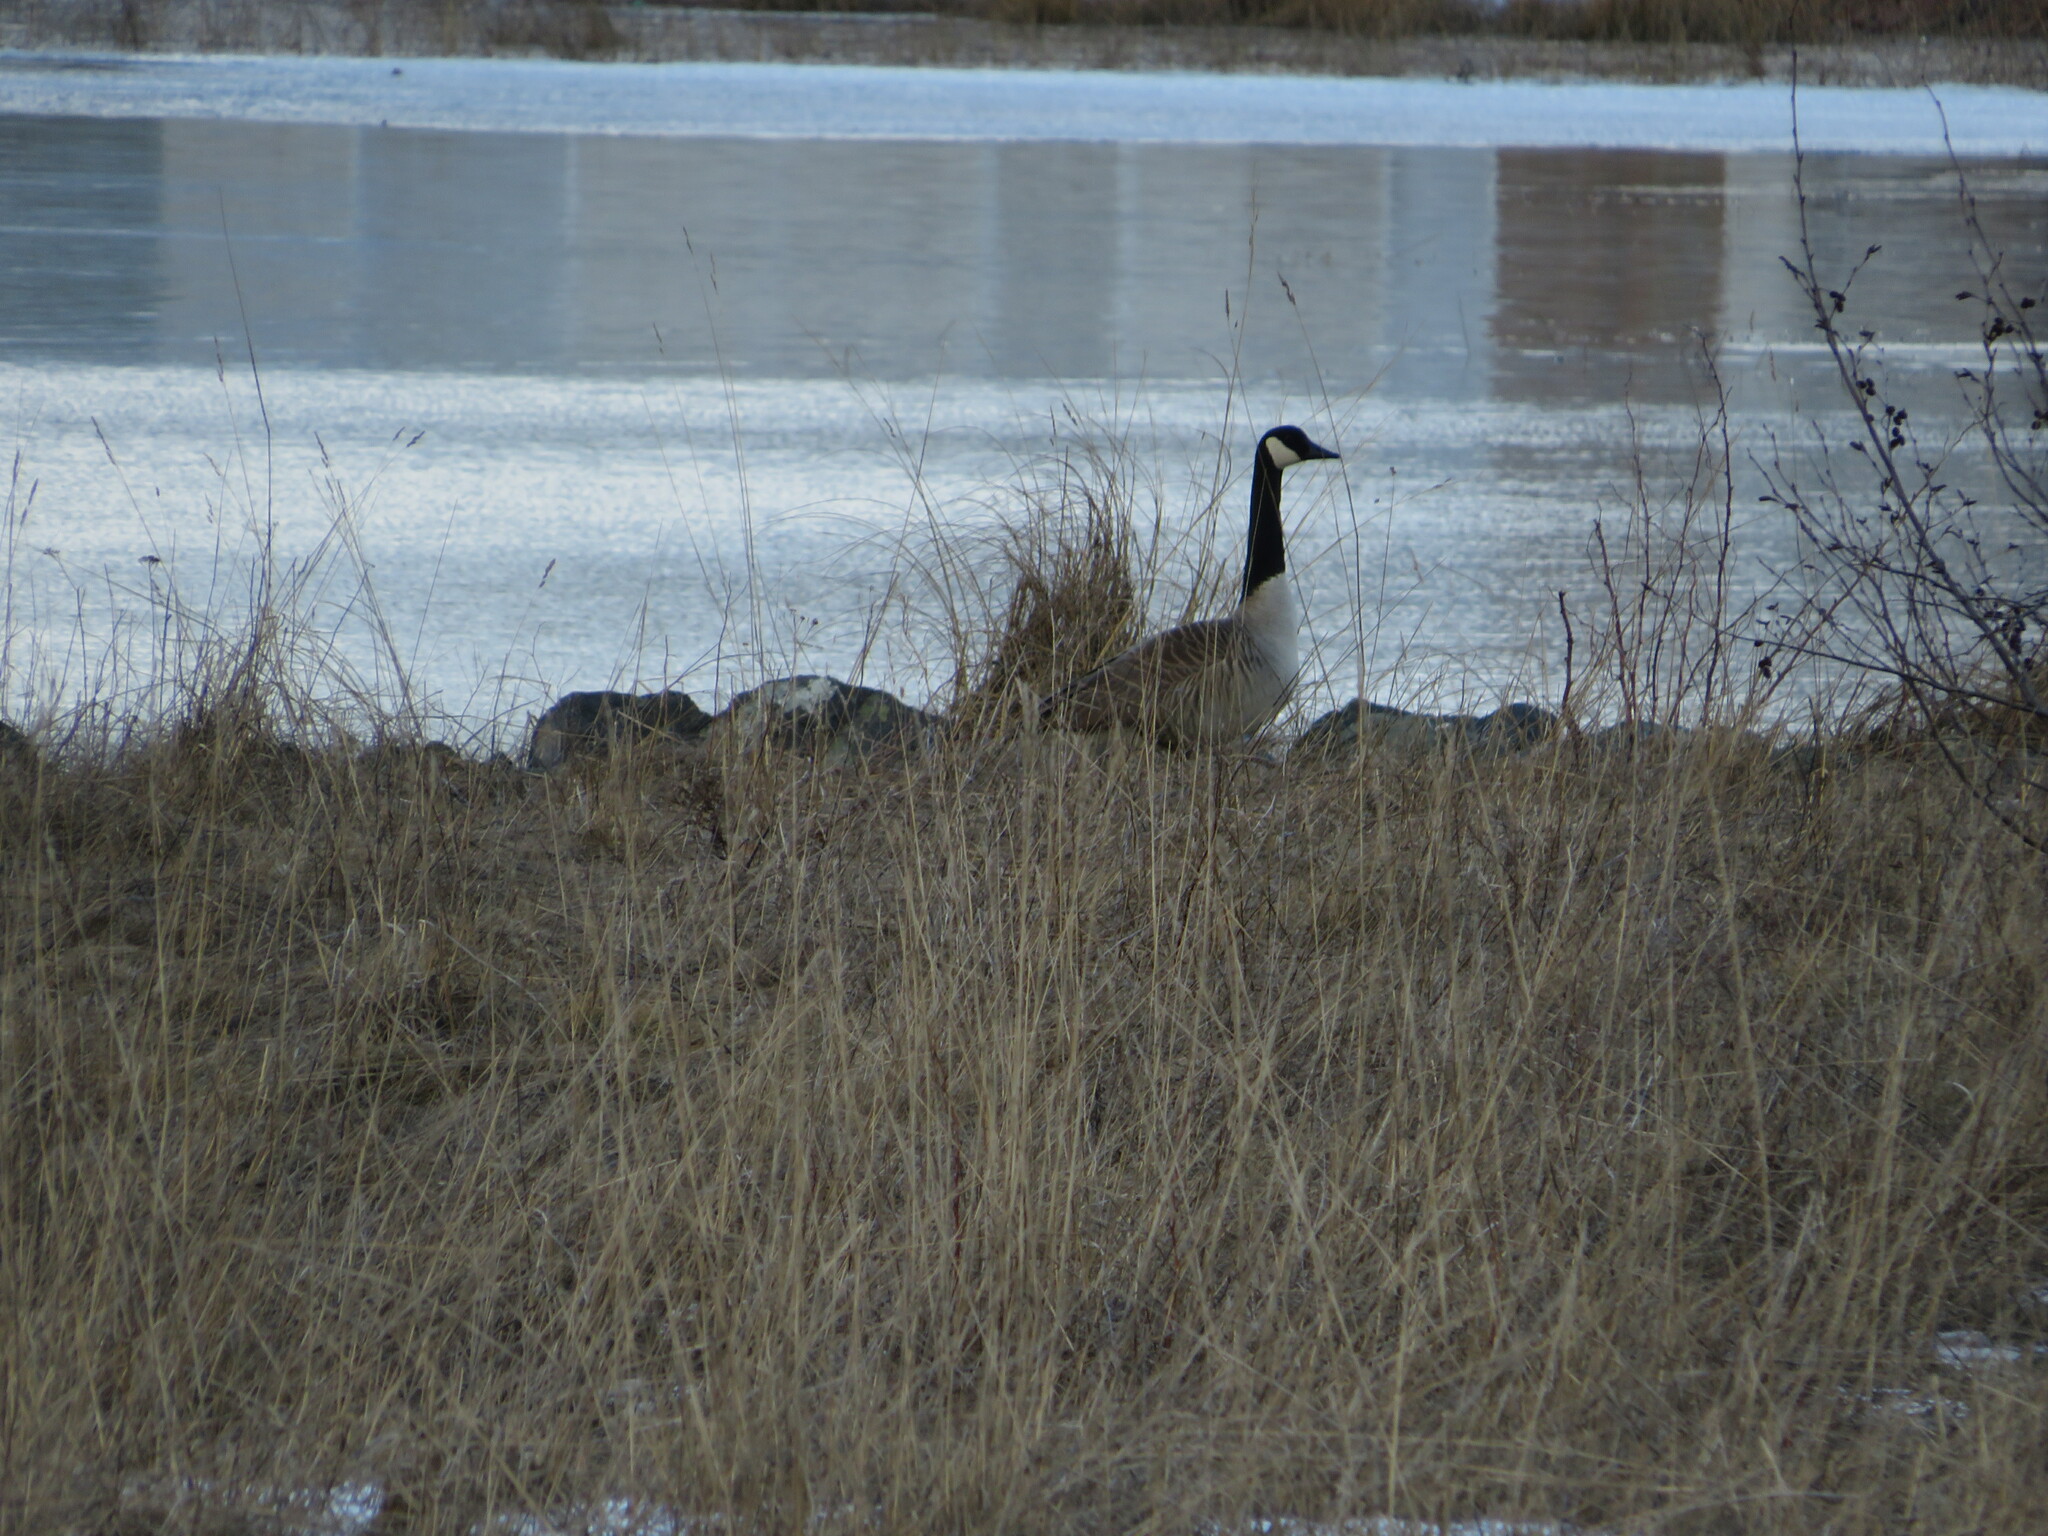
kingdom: Animalia
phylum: Chordata
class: Aves
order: Anseriformes
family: Anatidae
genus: Branta
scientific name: Branta canadensis
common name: Canada goose
